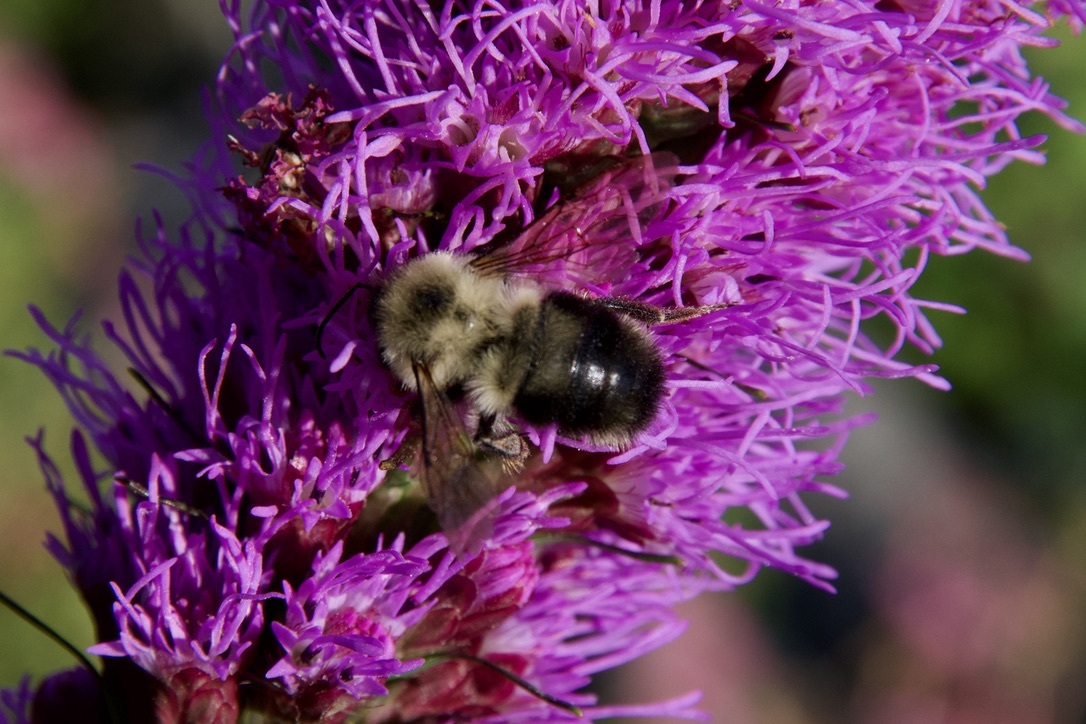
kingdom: Animalia
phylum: Arthropoda
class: Insecta
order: Hymenoptera
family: Apidae
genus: Bombus
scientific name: Bombus bimaculatus
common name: Two-spotted bumble bee
